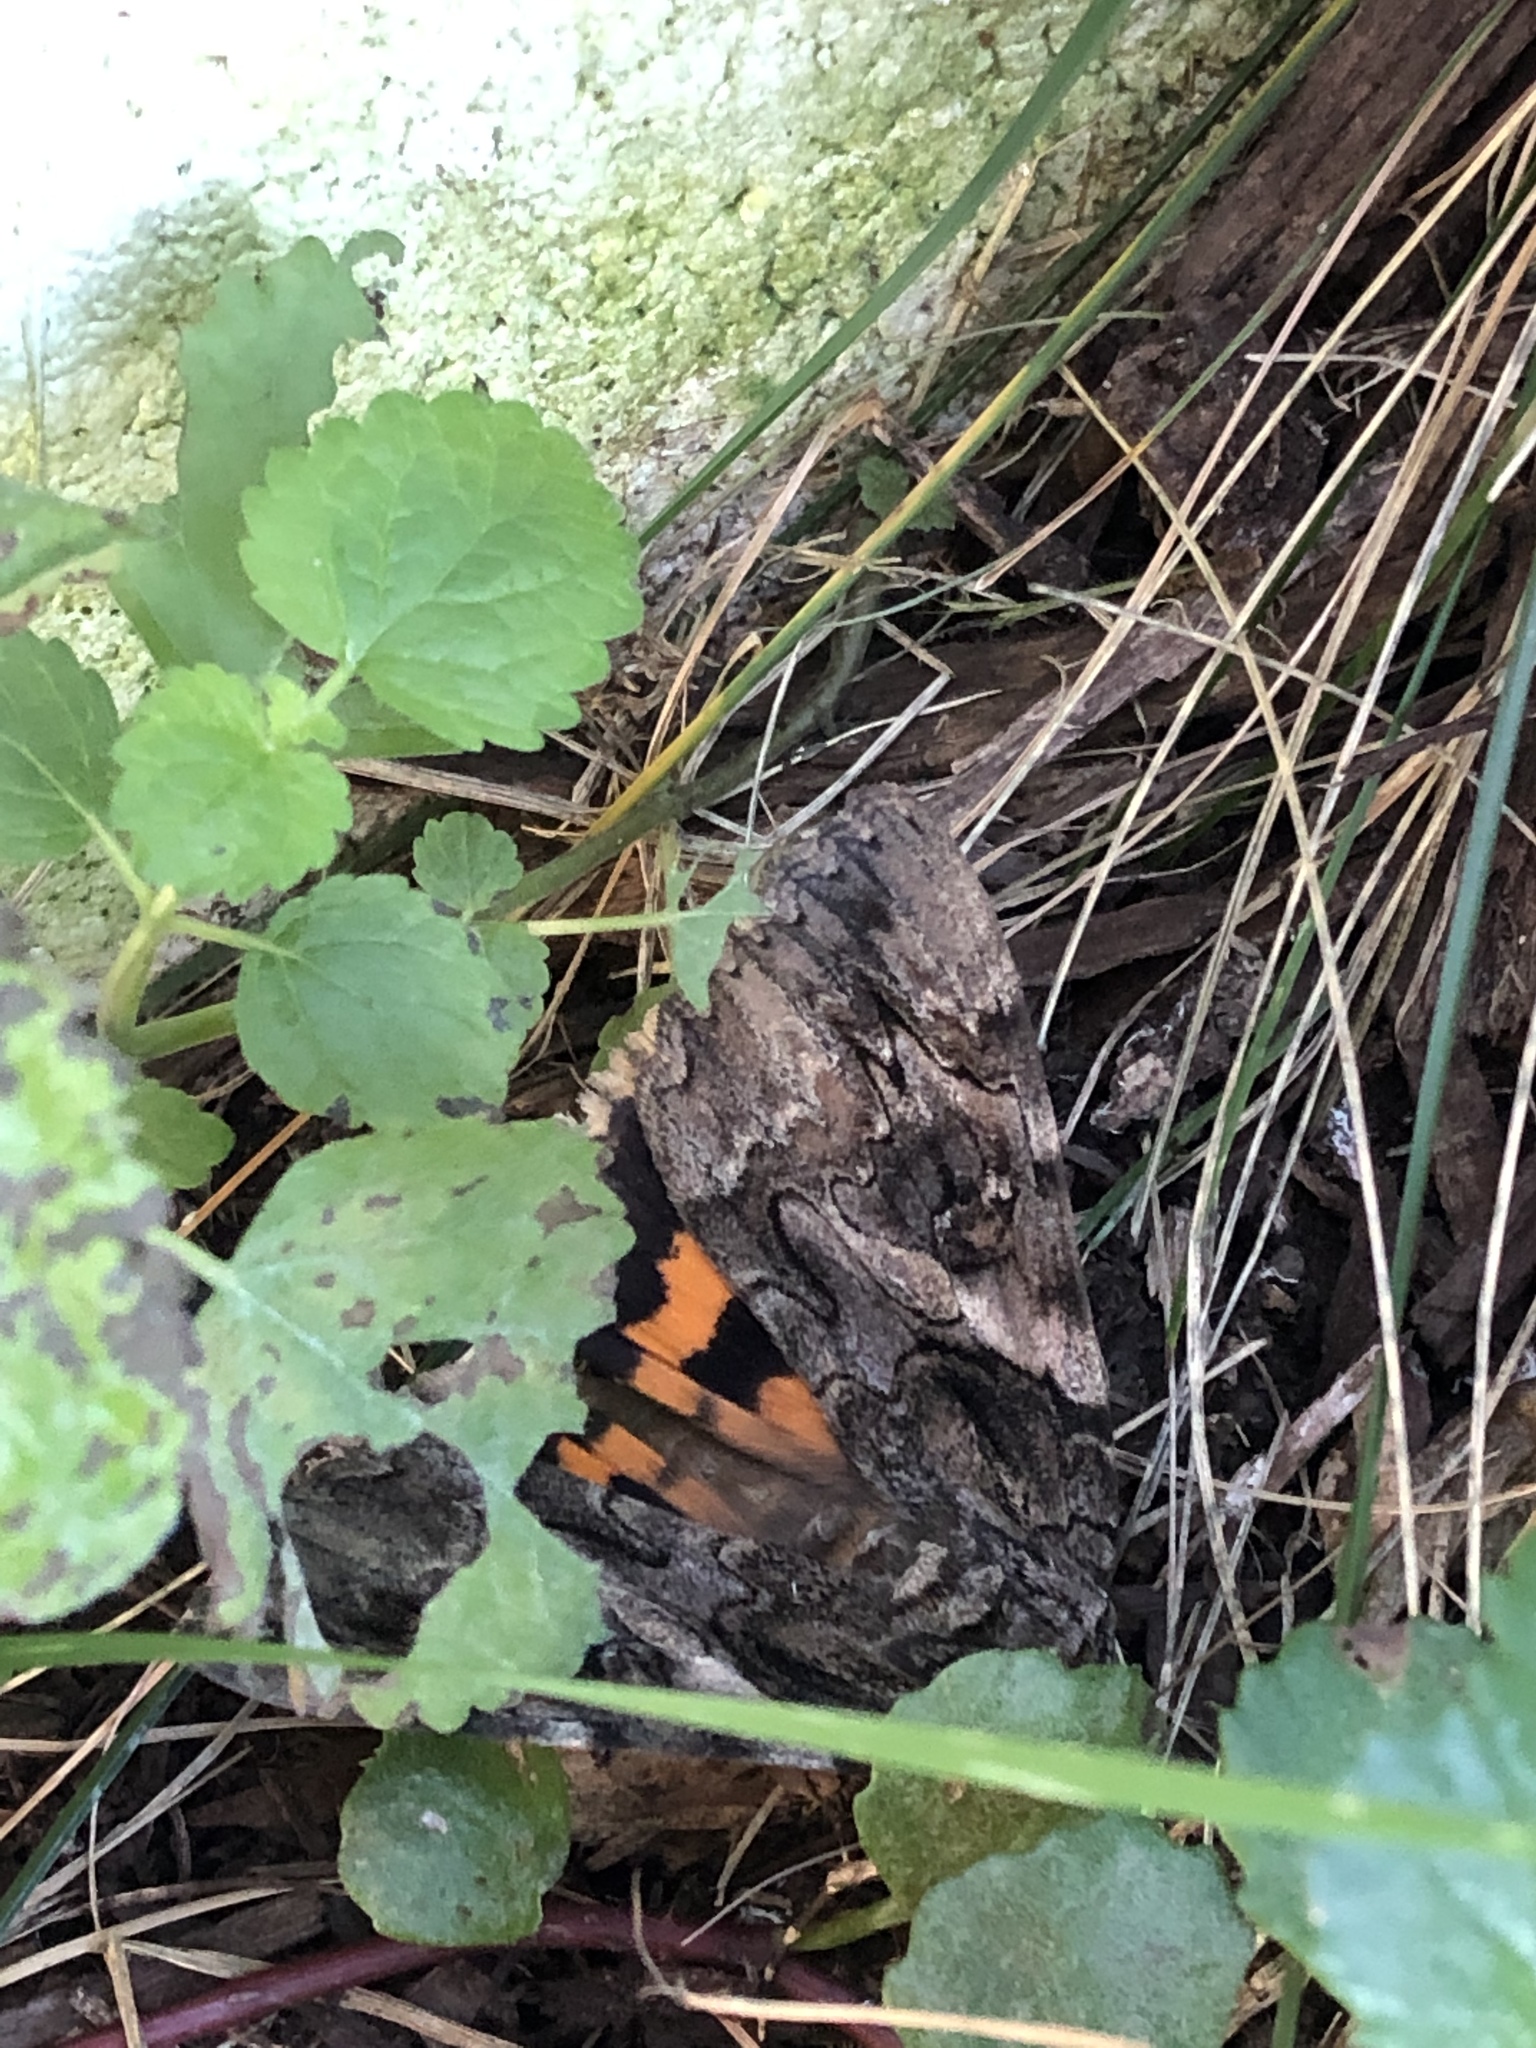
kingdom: Animalia
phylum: Arthropoda
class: Insecta
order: Lepidoptera
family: Erebidae
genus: Catocala
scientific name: Catocala piatrix
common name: The penitent underwing
